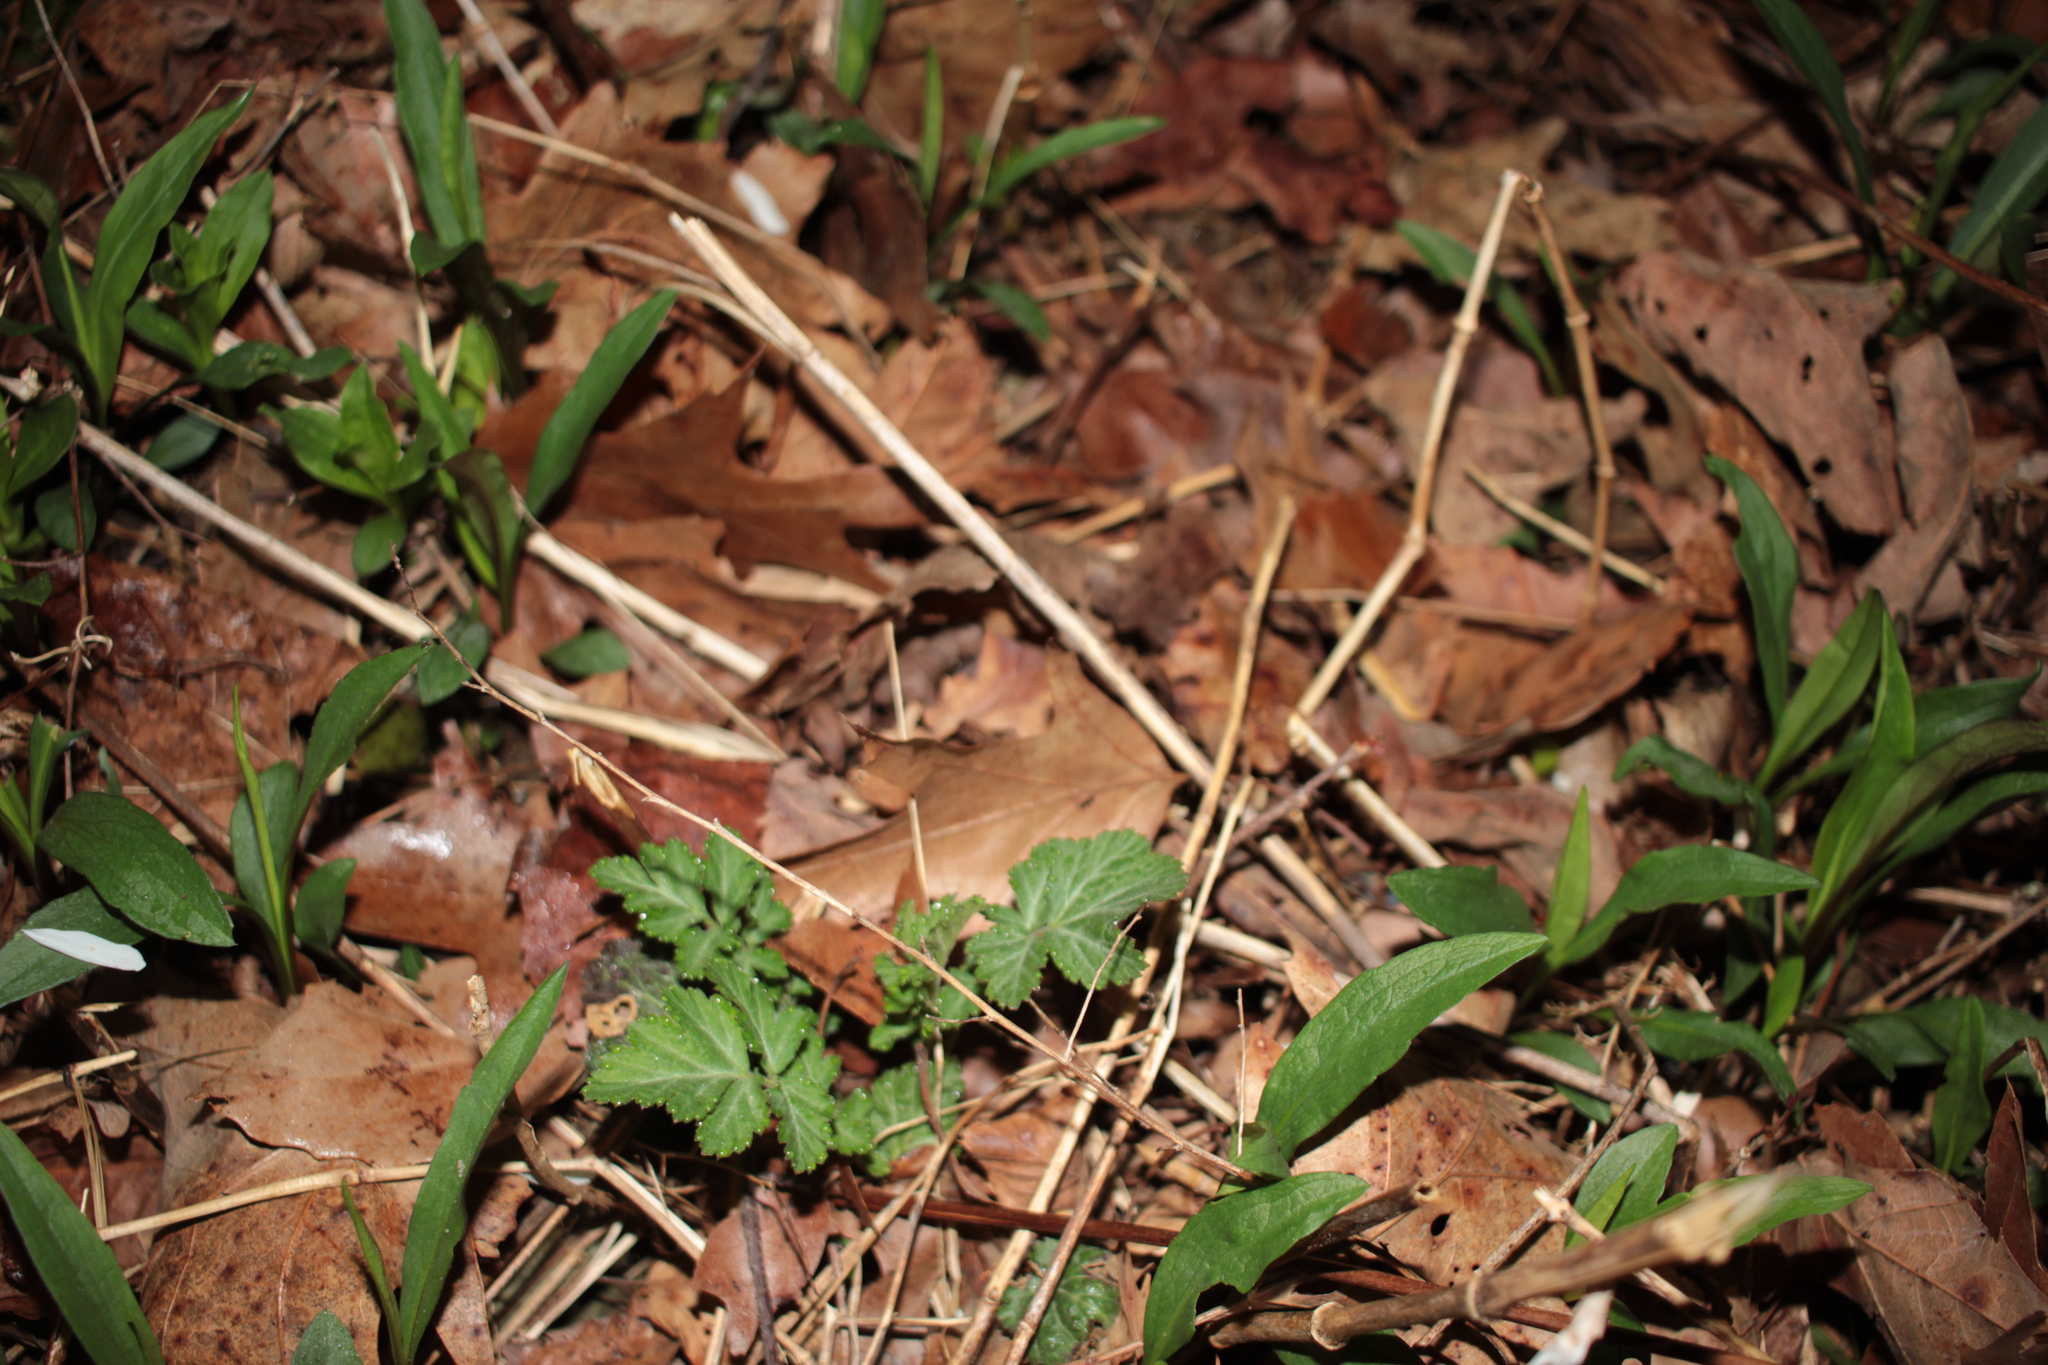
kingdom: Plantae
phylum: Tracheophyta
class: Magnoliopsida
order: Rosales
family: Rosaceae
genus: Geum
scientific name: Geum
